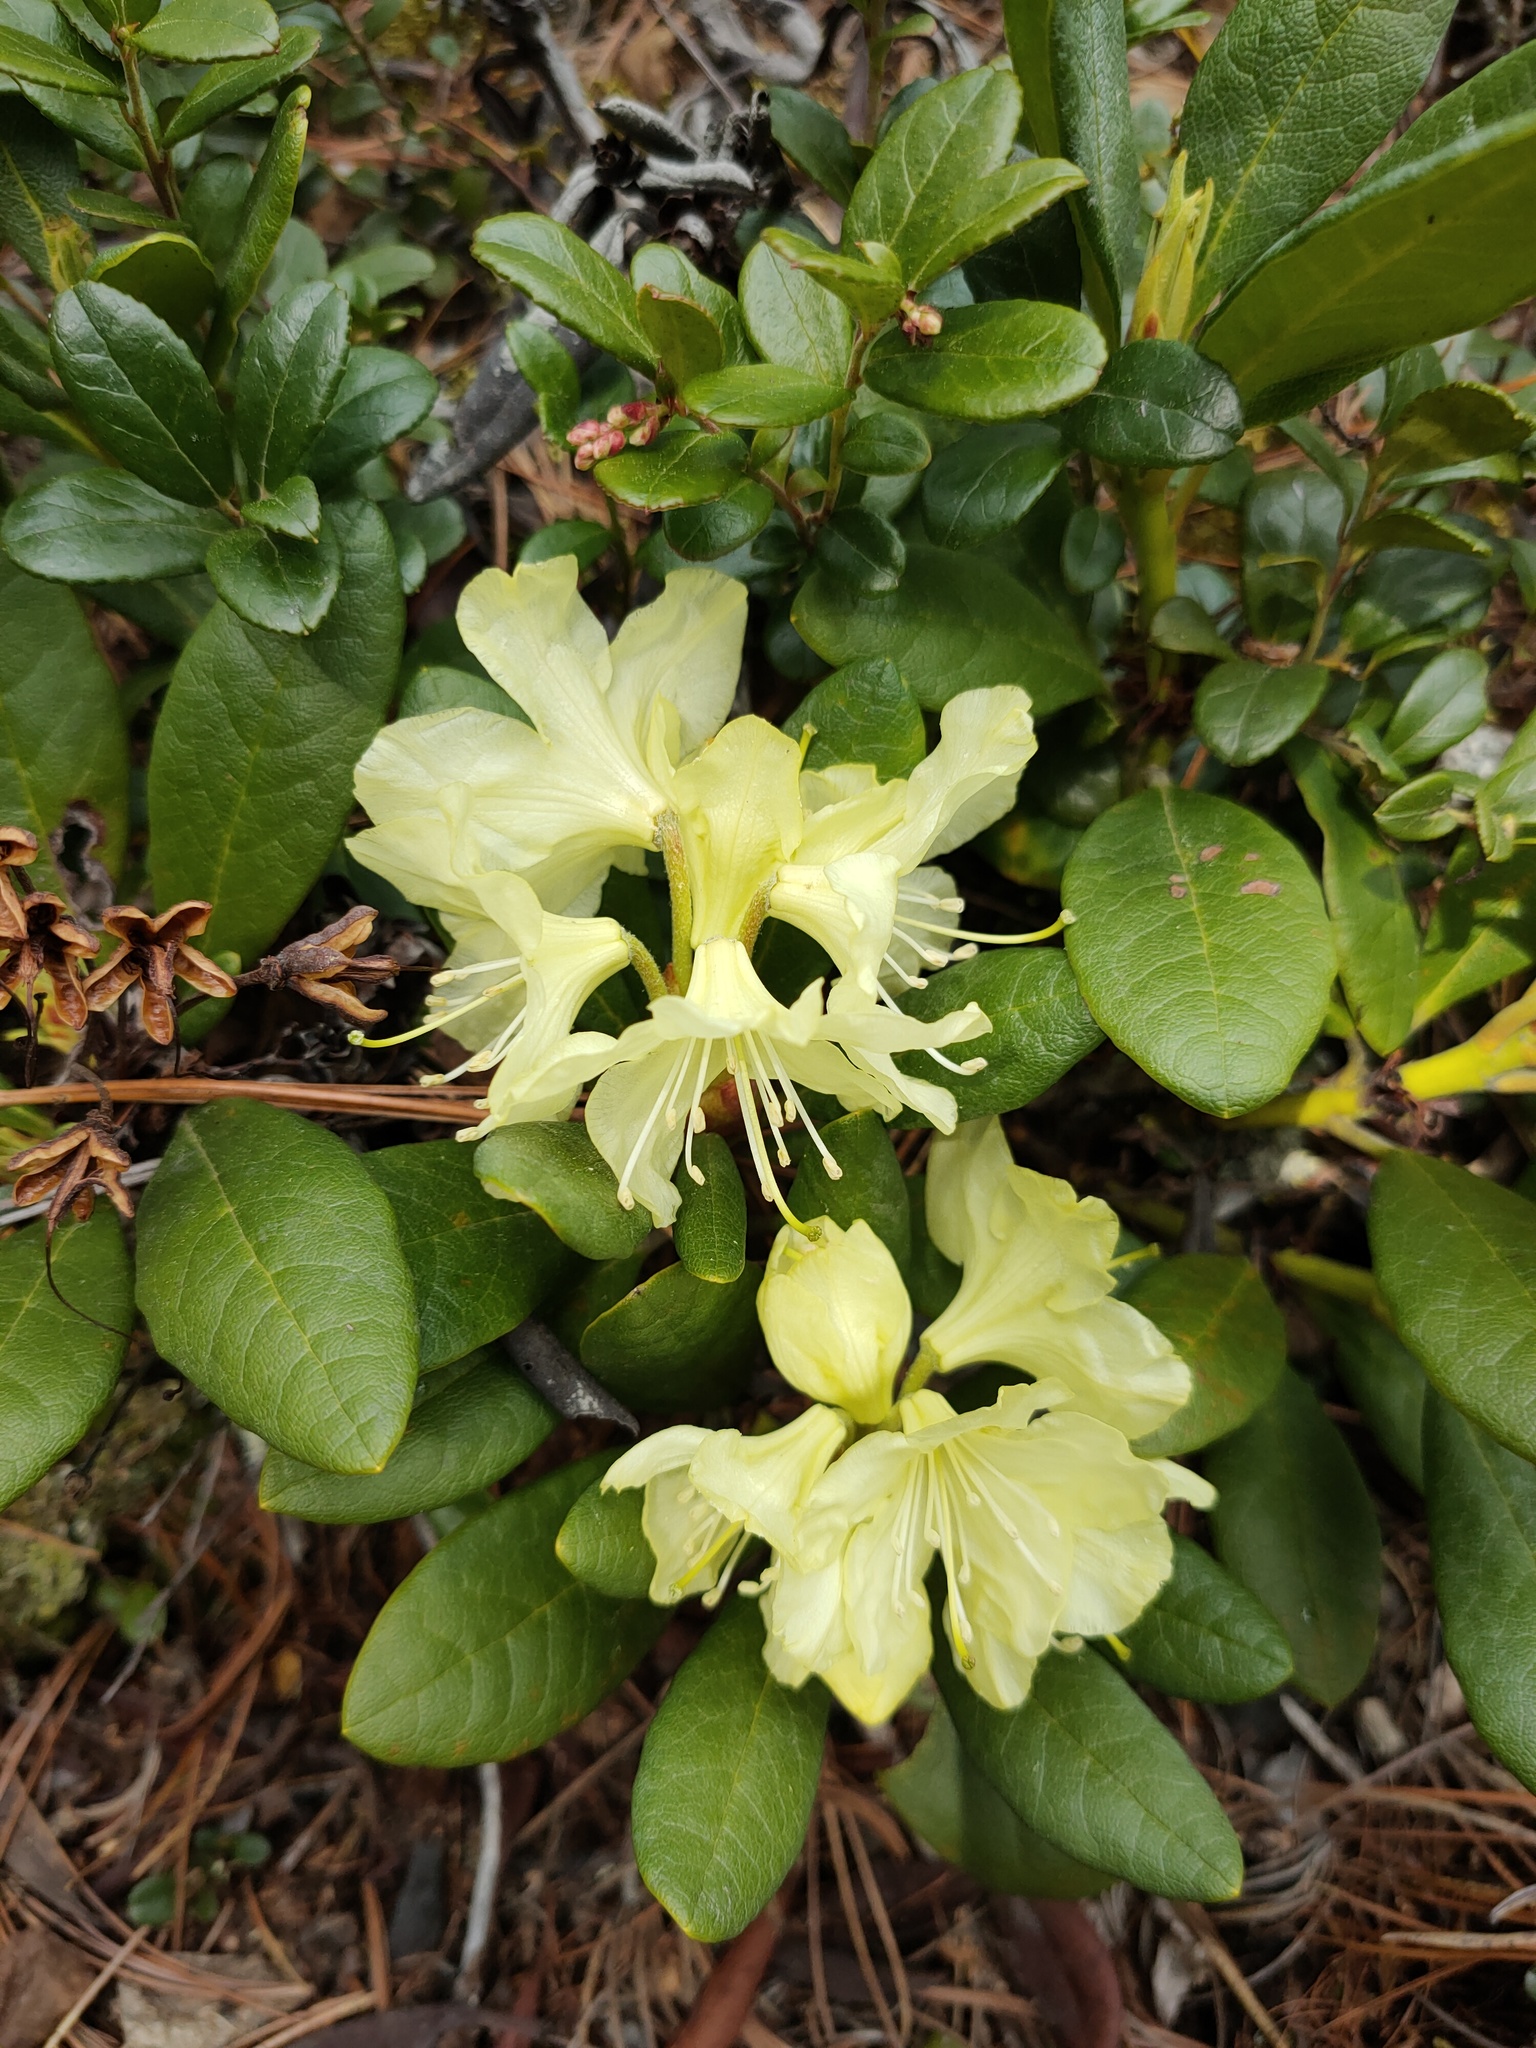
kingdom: Plantae
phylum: Tracheophyta
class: Magnoliopsida
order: Ericales
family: Ericaceae
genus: Rhododendron
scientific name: Rhododendron aureum
